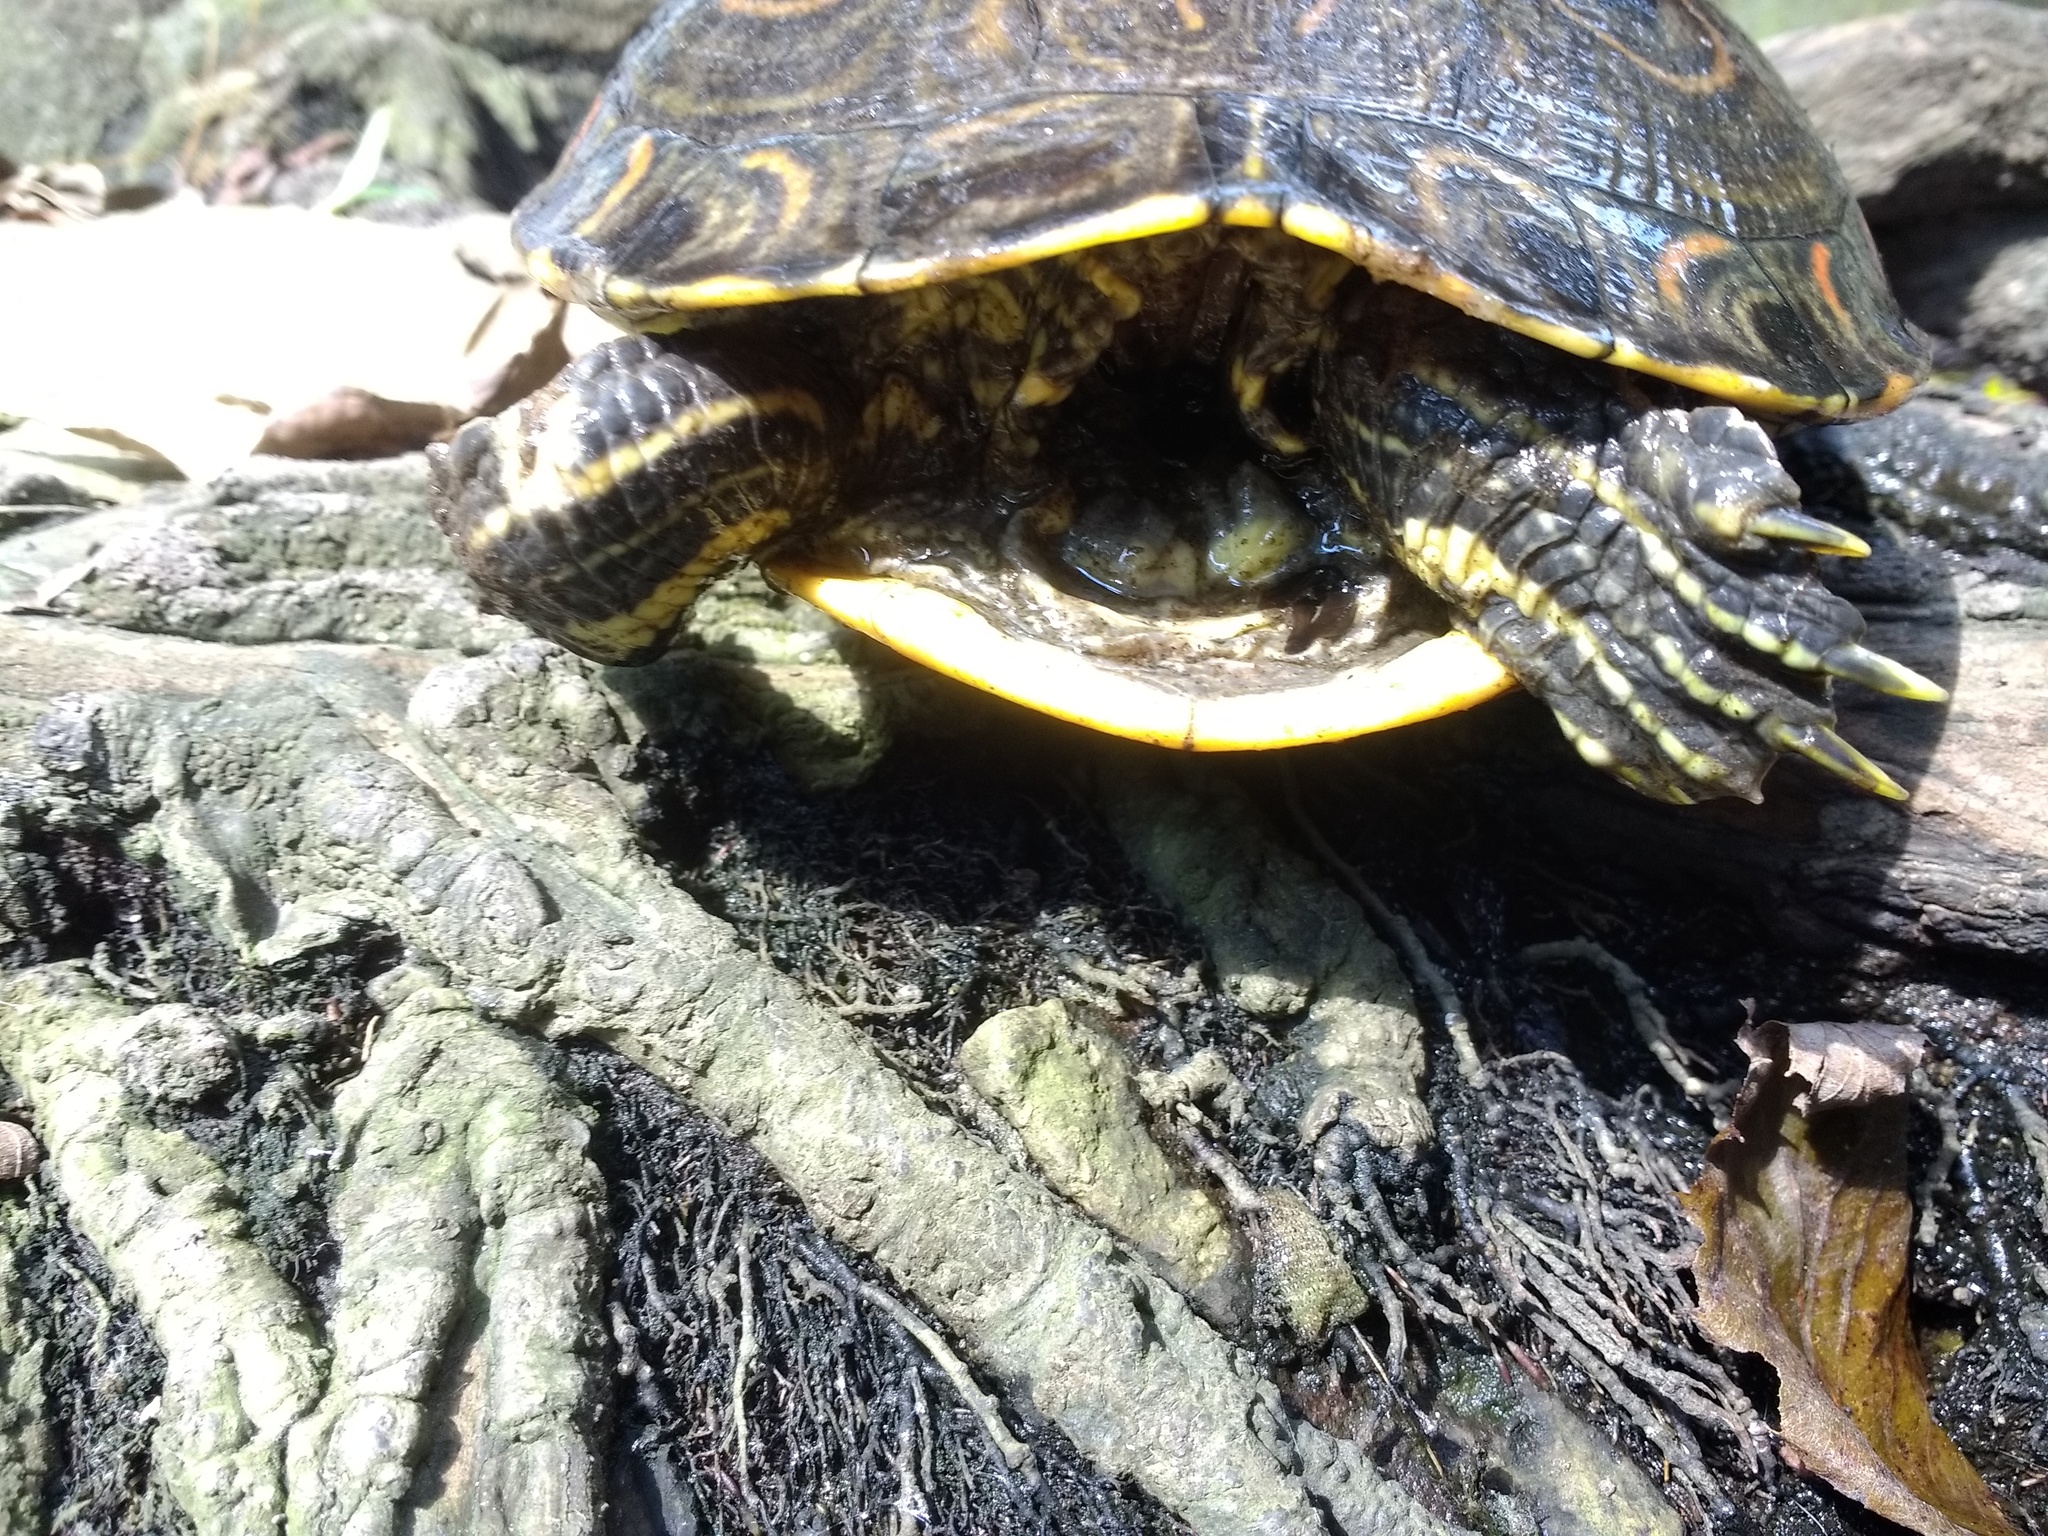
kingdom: Animalia
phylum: Chordata
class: Testudines
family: Emydidae
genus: Trachemys
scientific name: Trachemys venusta
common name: Mesoamerican slider
